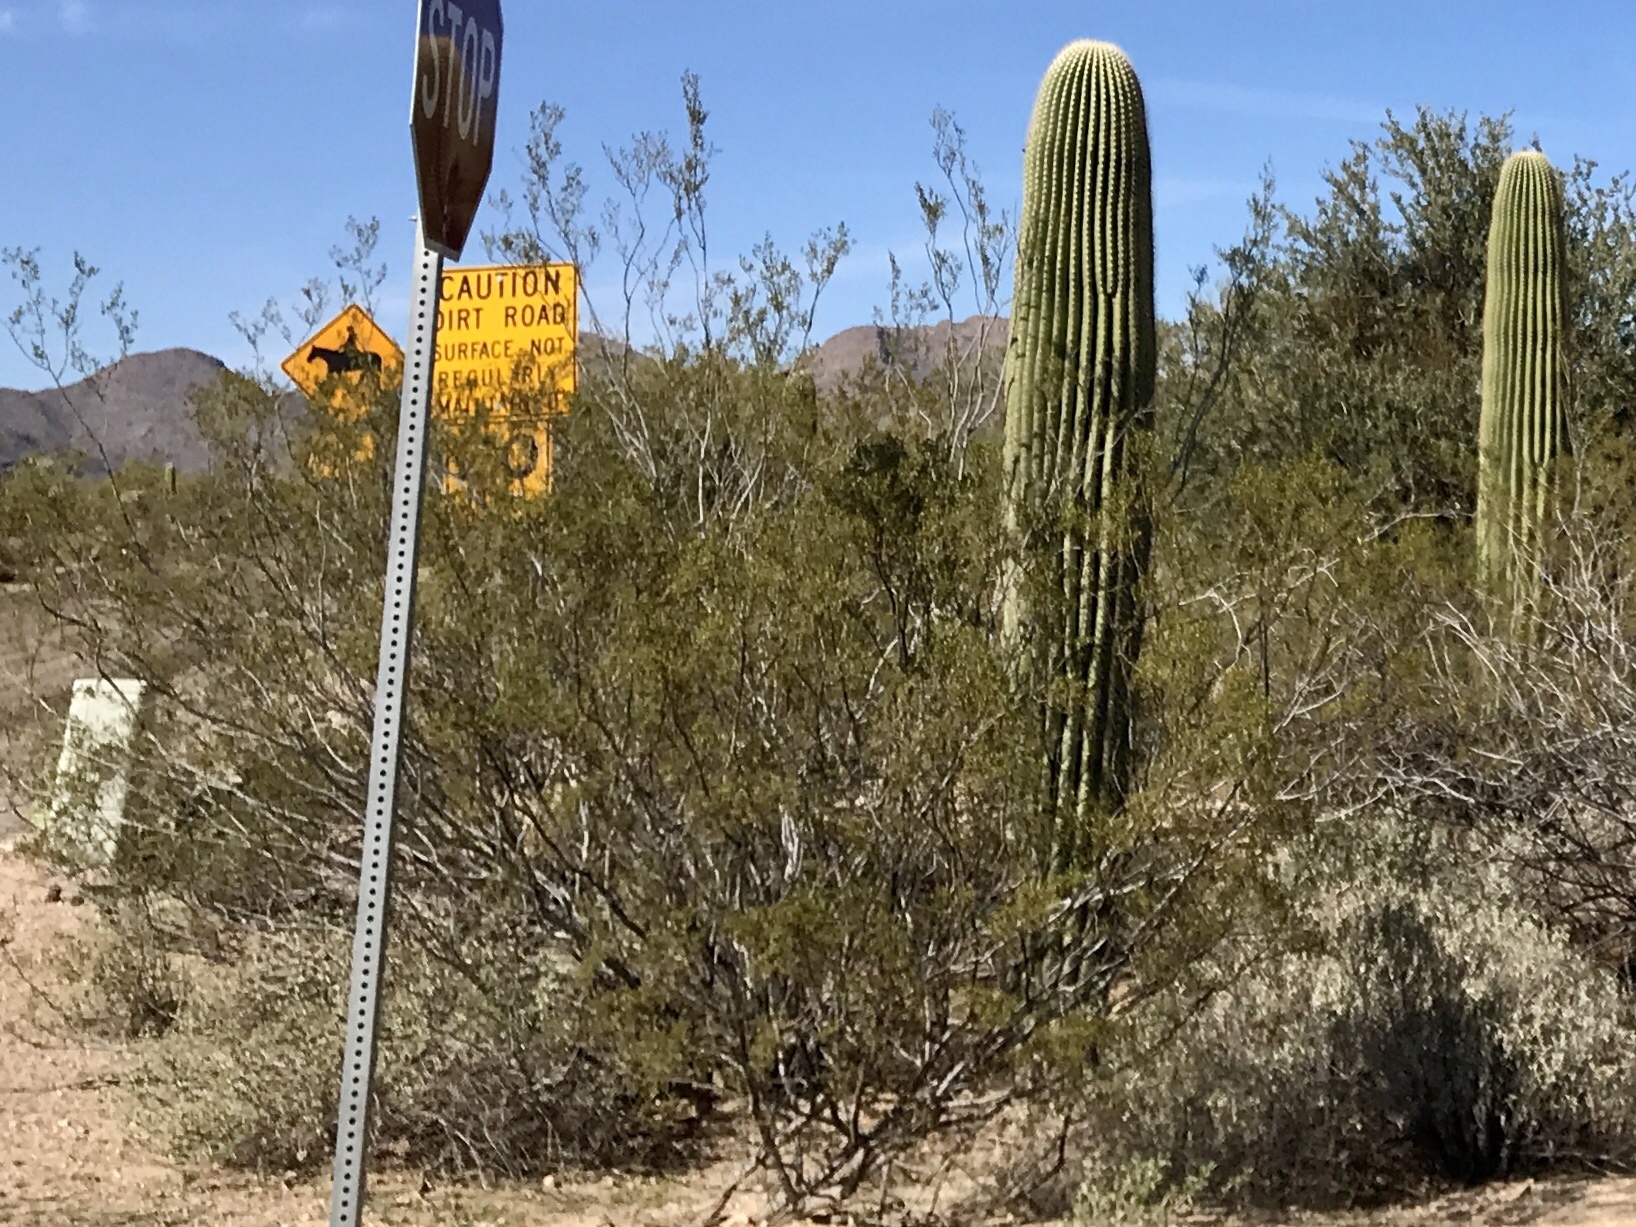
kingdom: Plantae
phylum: Tracheophyta
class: Magnoliopsida
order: Zygophyllales
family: Zygophyllaceae
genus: Larrea
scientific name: Larrea tridentata
